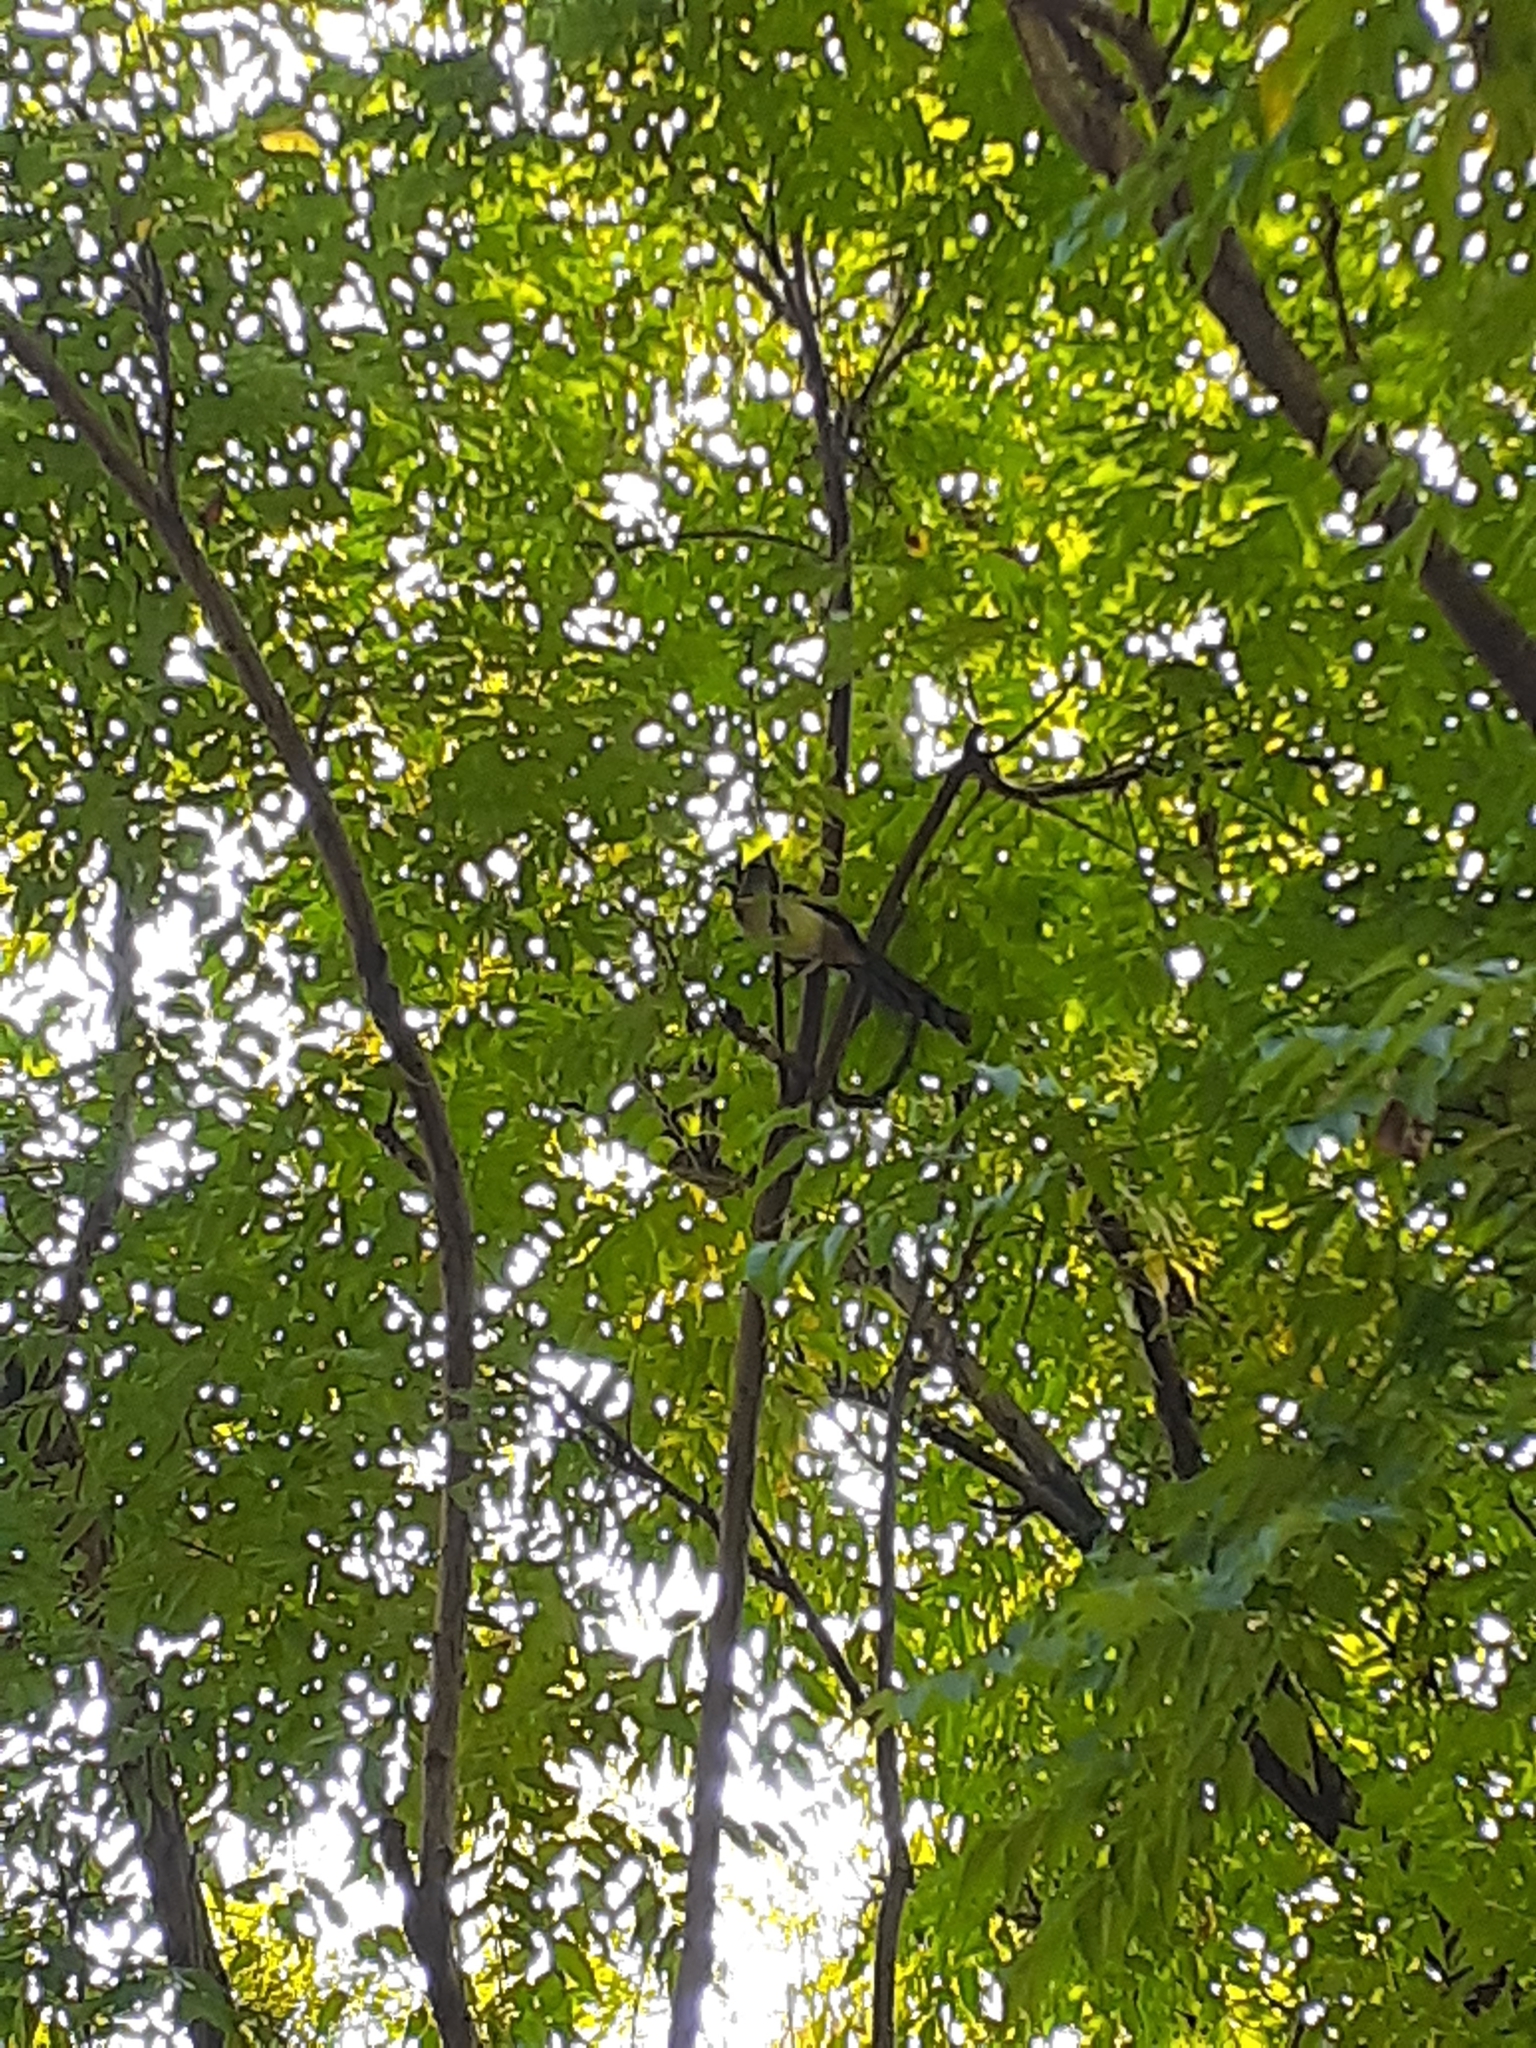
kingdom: Animalia
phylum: Chordata
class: Aves
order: Passeriformes
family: Corvidae
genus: Dendrocitta
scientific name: Dendrocitta formosae
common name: Grey treepie
